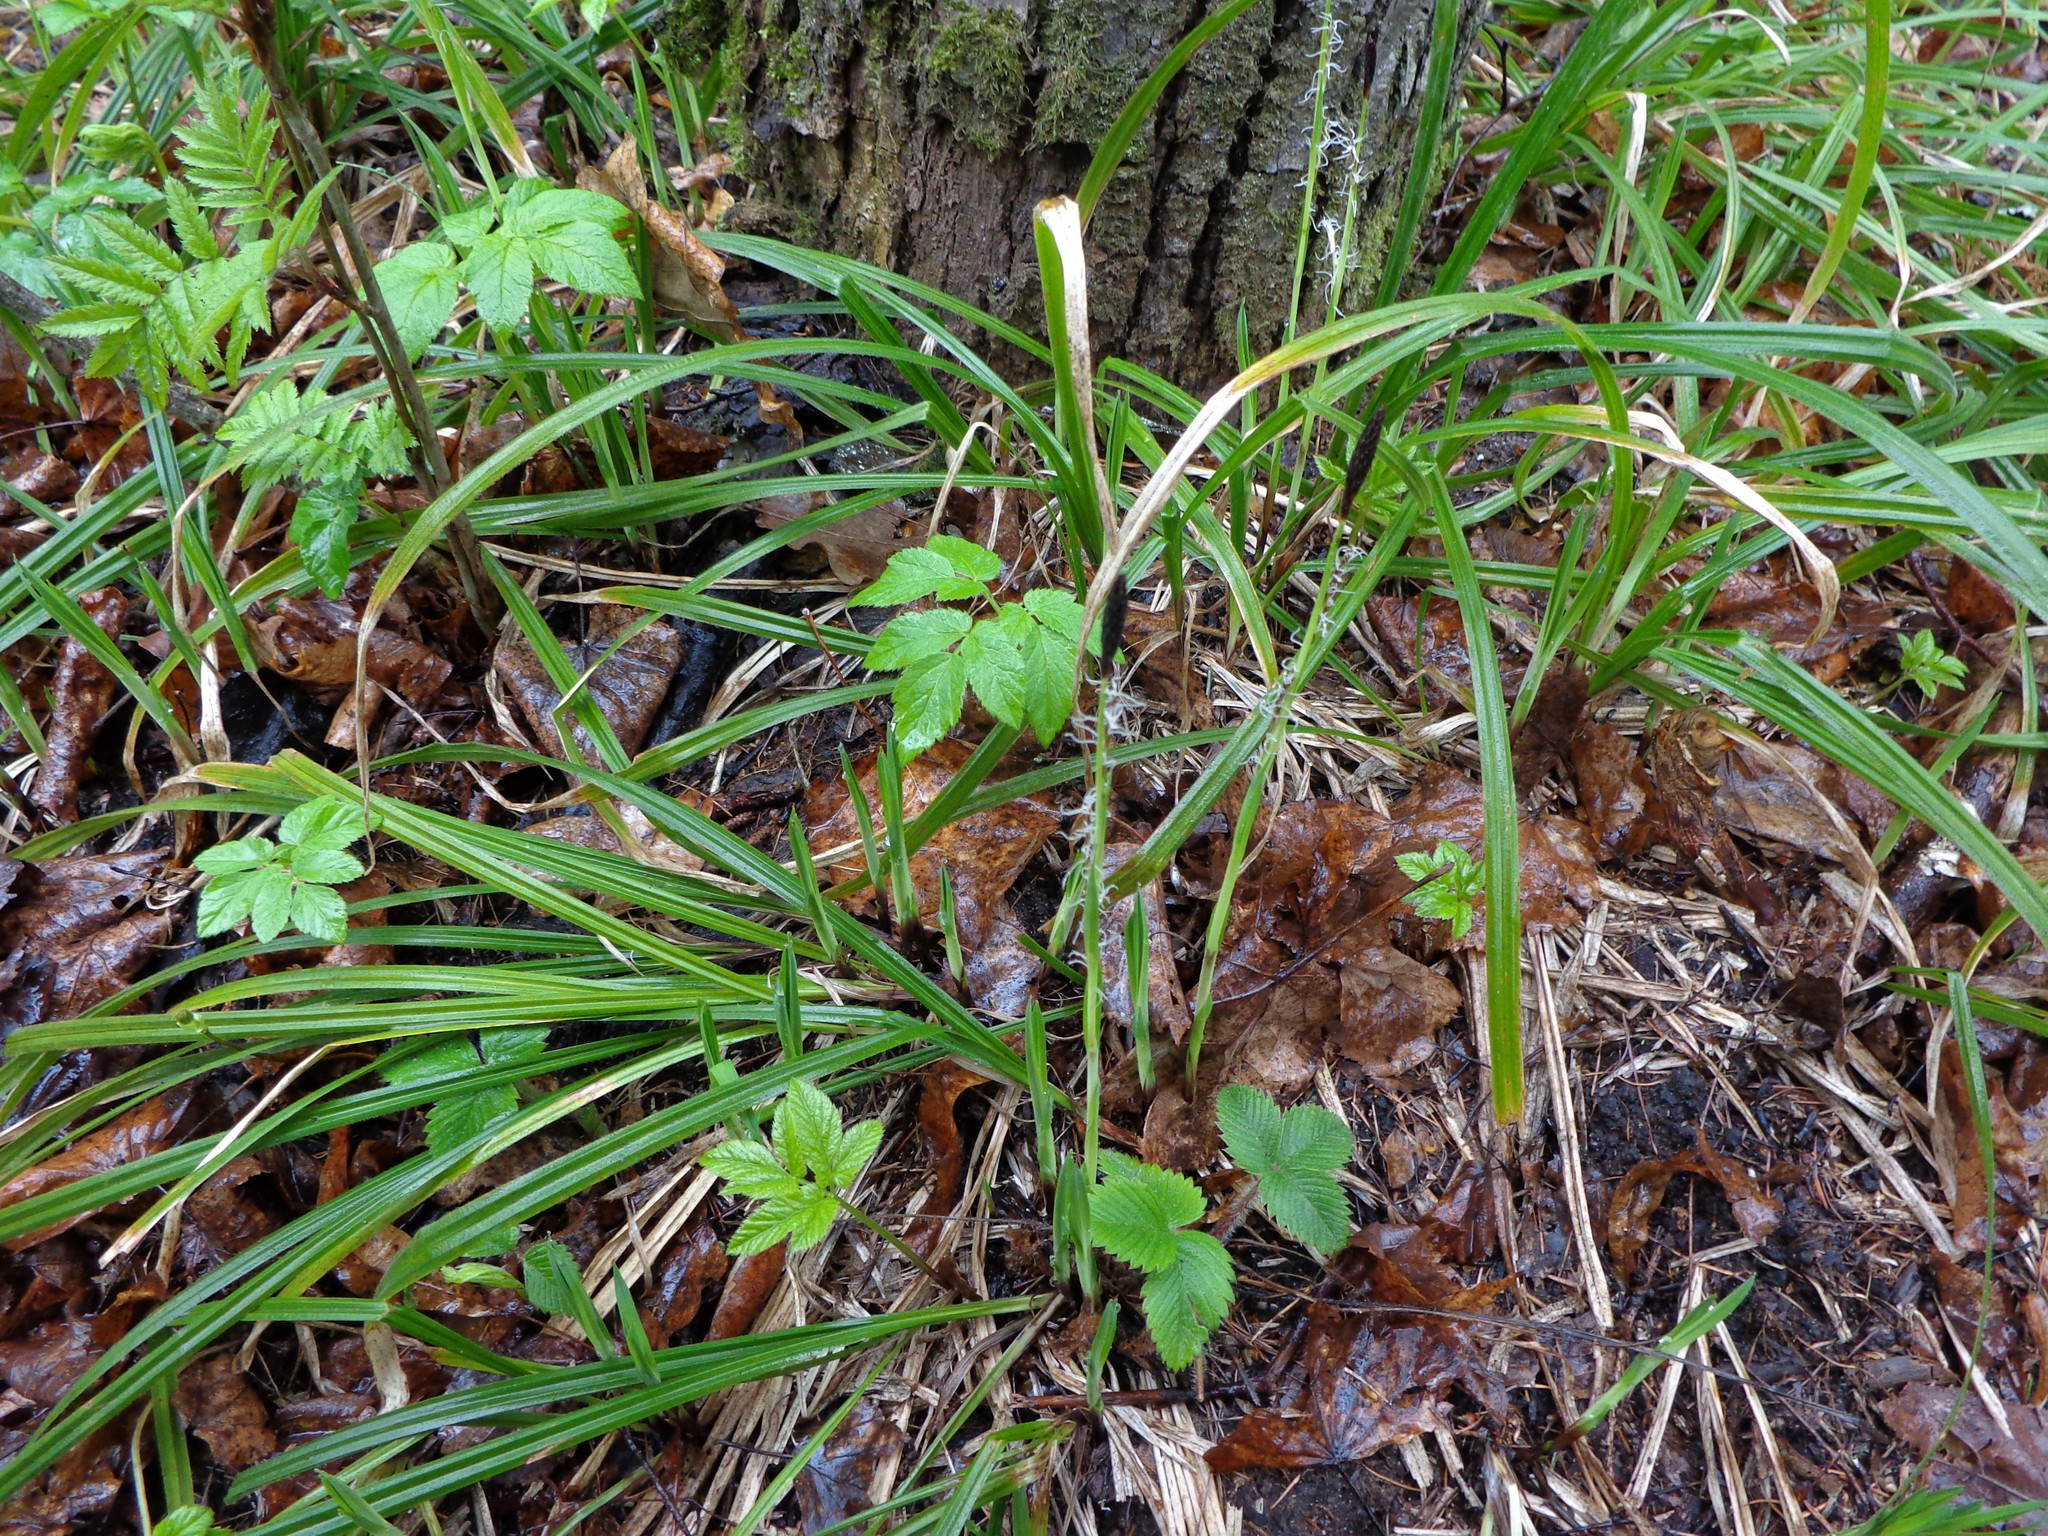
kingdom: Plantae
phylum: Tracheophyta
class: Liliopsida
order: Poales
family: Cyperaceae
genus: Carex
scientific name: Carex pilosa
